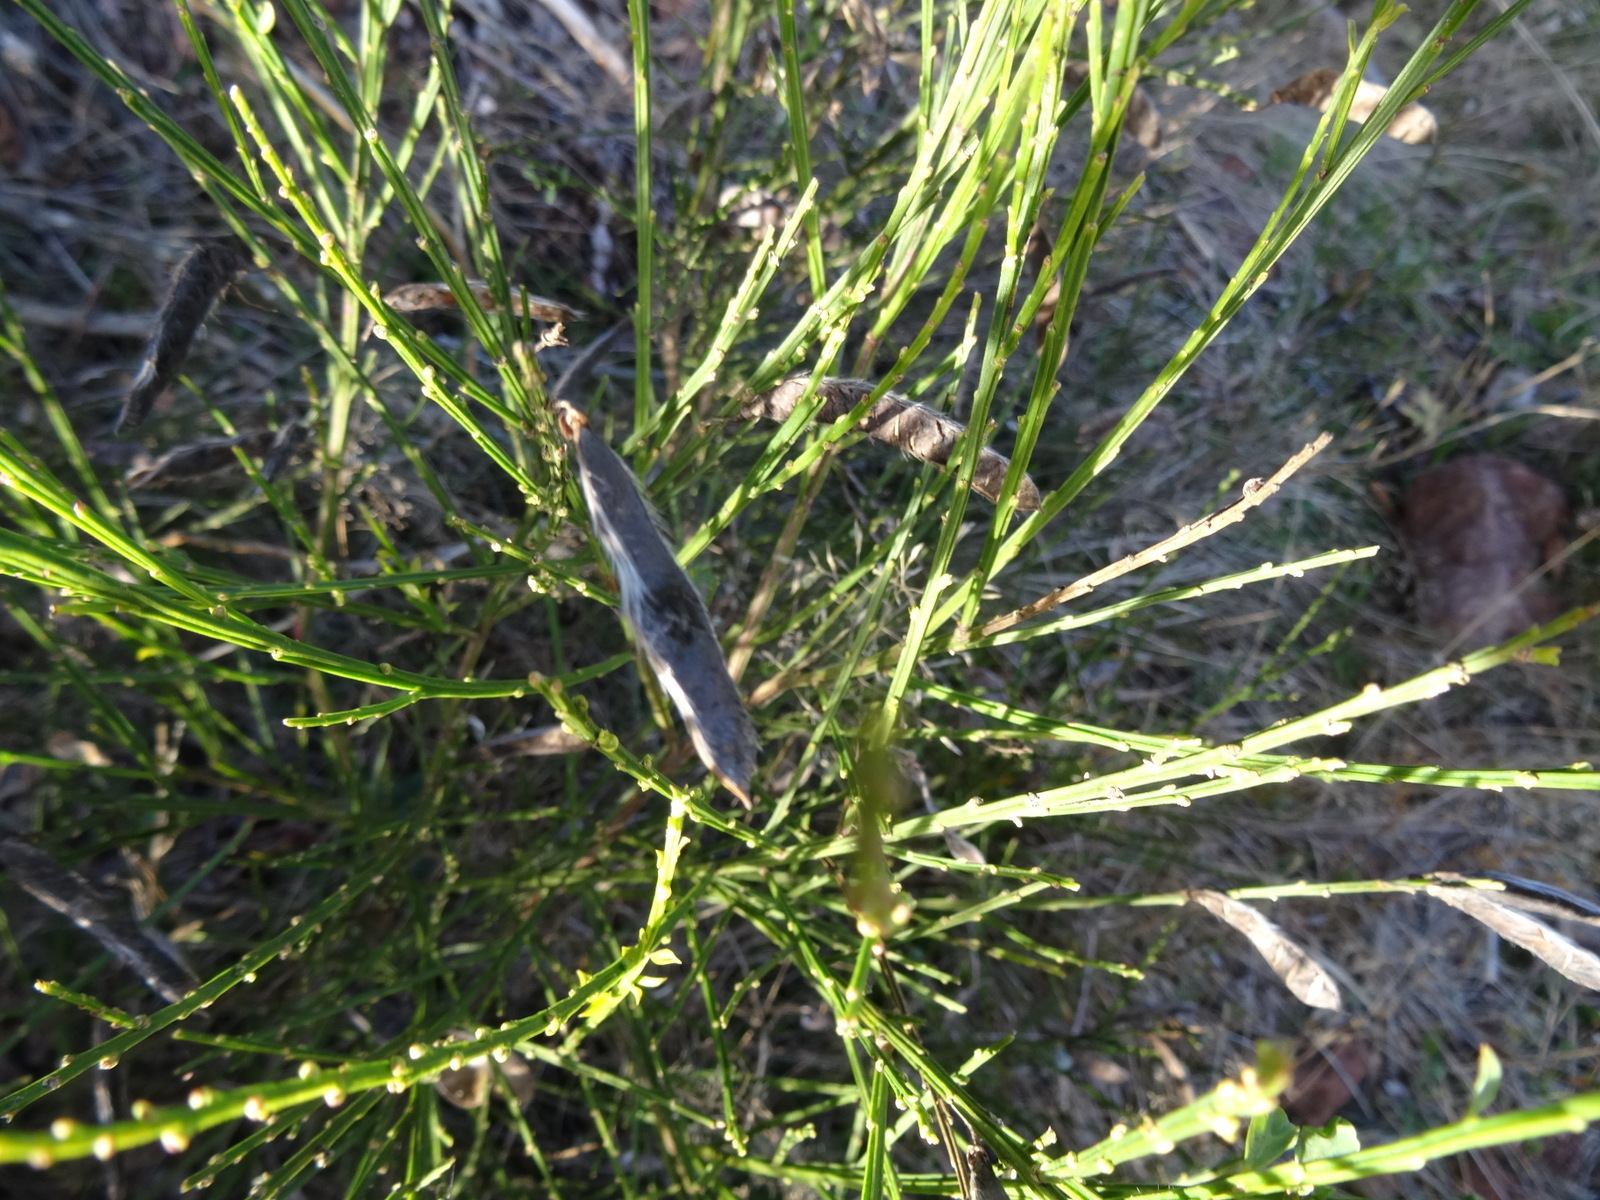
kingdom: Plantae
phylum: Tracheophyta
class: Magnoliopsida
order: Fabales
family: Fabaceae
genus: Cytisus
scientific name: Cytisus scoparius
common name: Scotch broom
